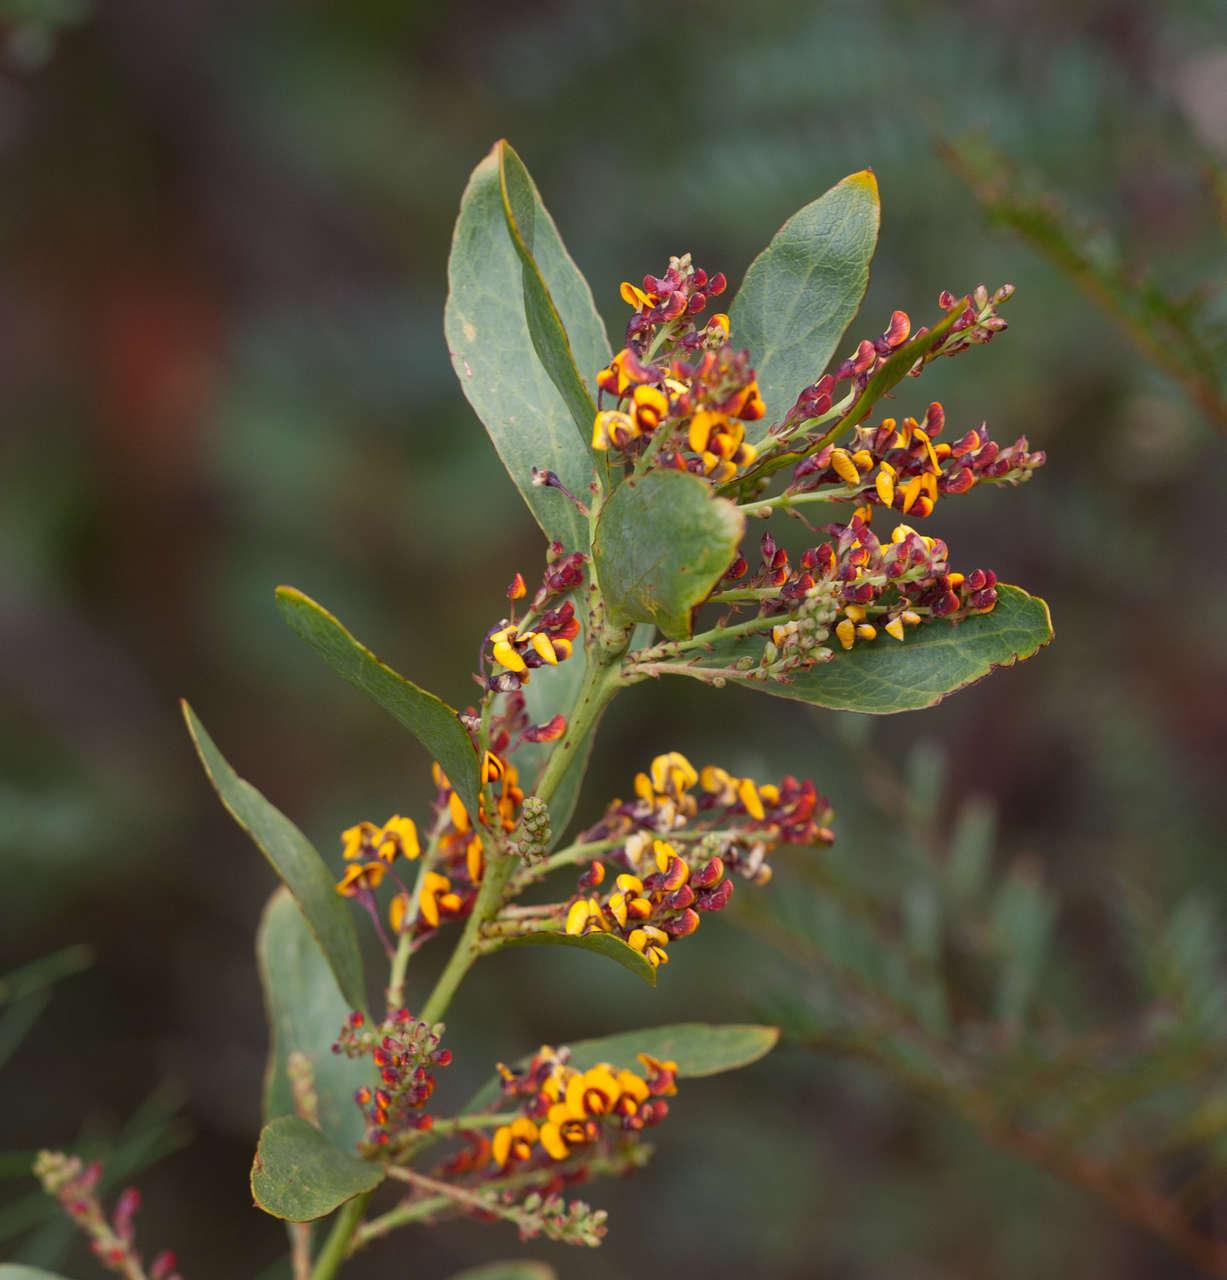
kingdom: Plantae
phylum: Tracheophyta
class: Magnoliopsida
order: Fabales
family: Fabaceae
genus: Daviesia
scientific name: Daviesia latifolia
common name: Hop bitter-pea
